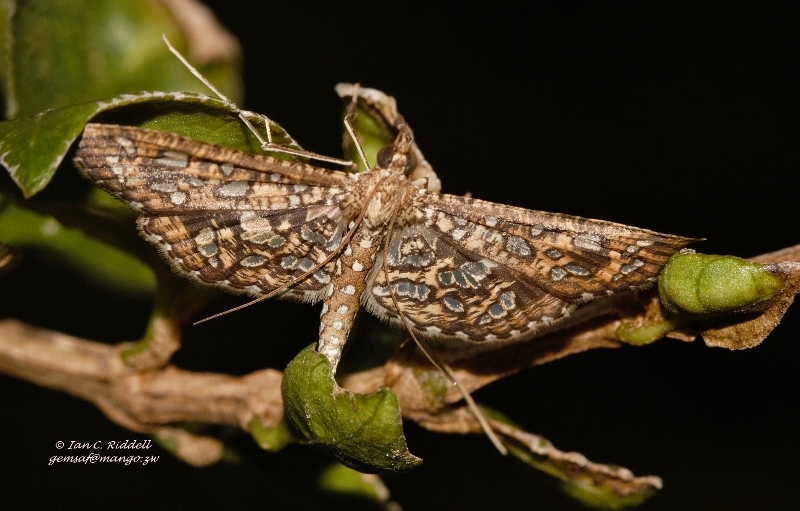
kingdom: Animalia
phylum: Arthropoda
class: Insecta
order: Lepidoptera
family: Crambidae
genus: Nausinoe
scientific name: Nausinoe geometralis
